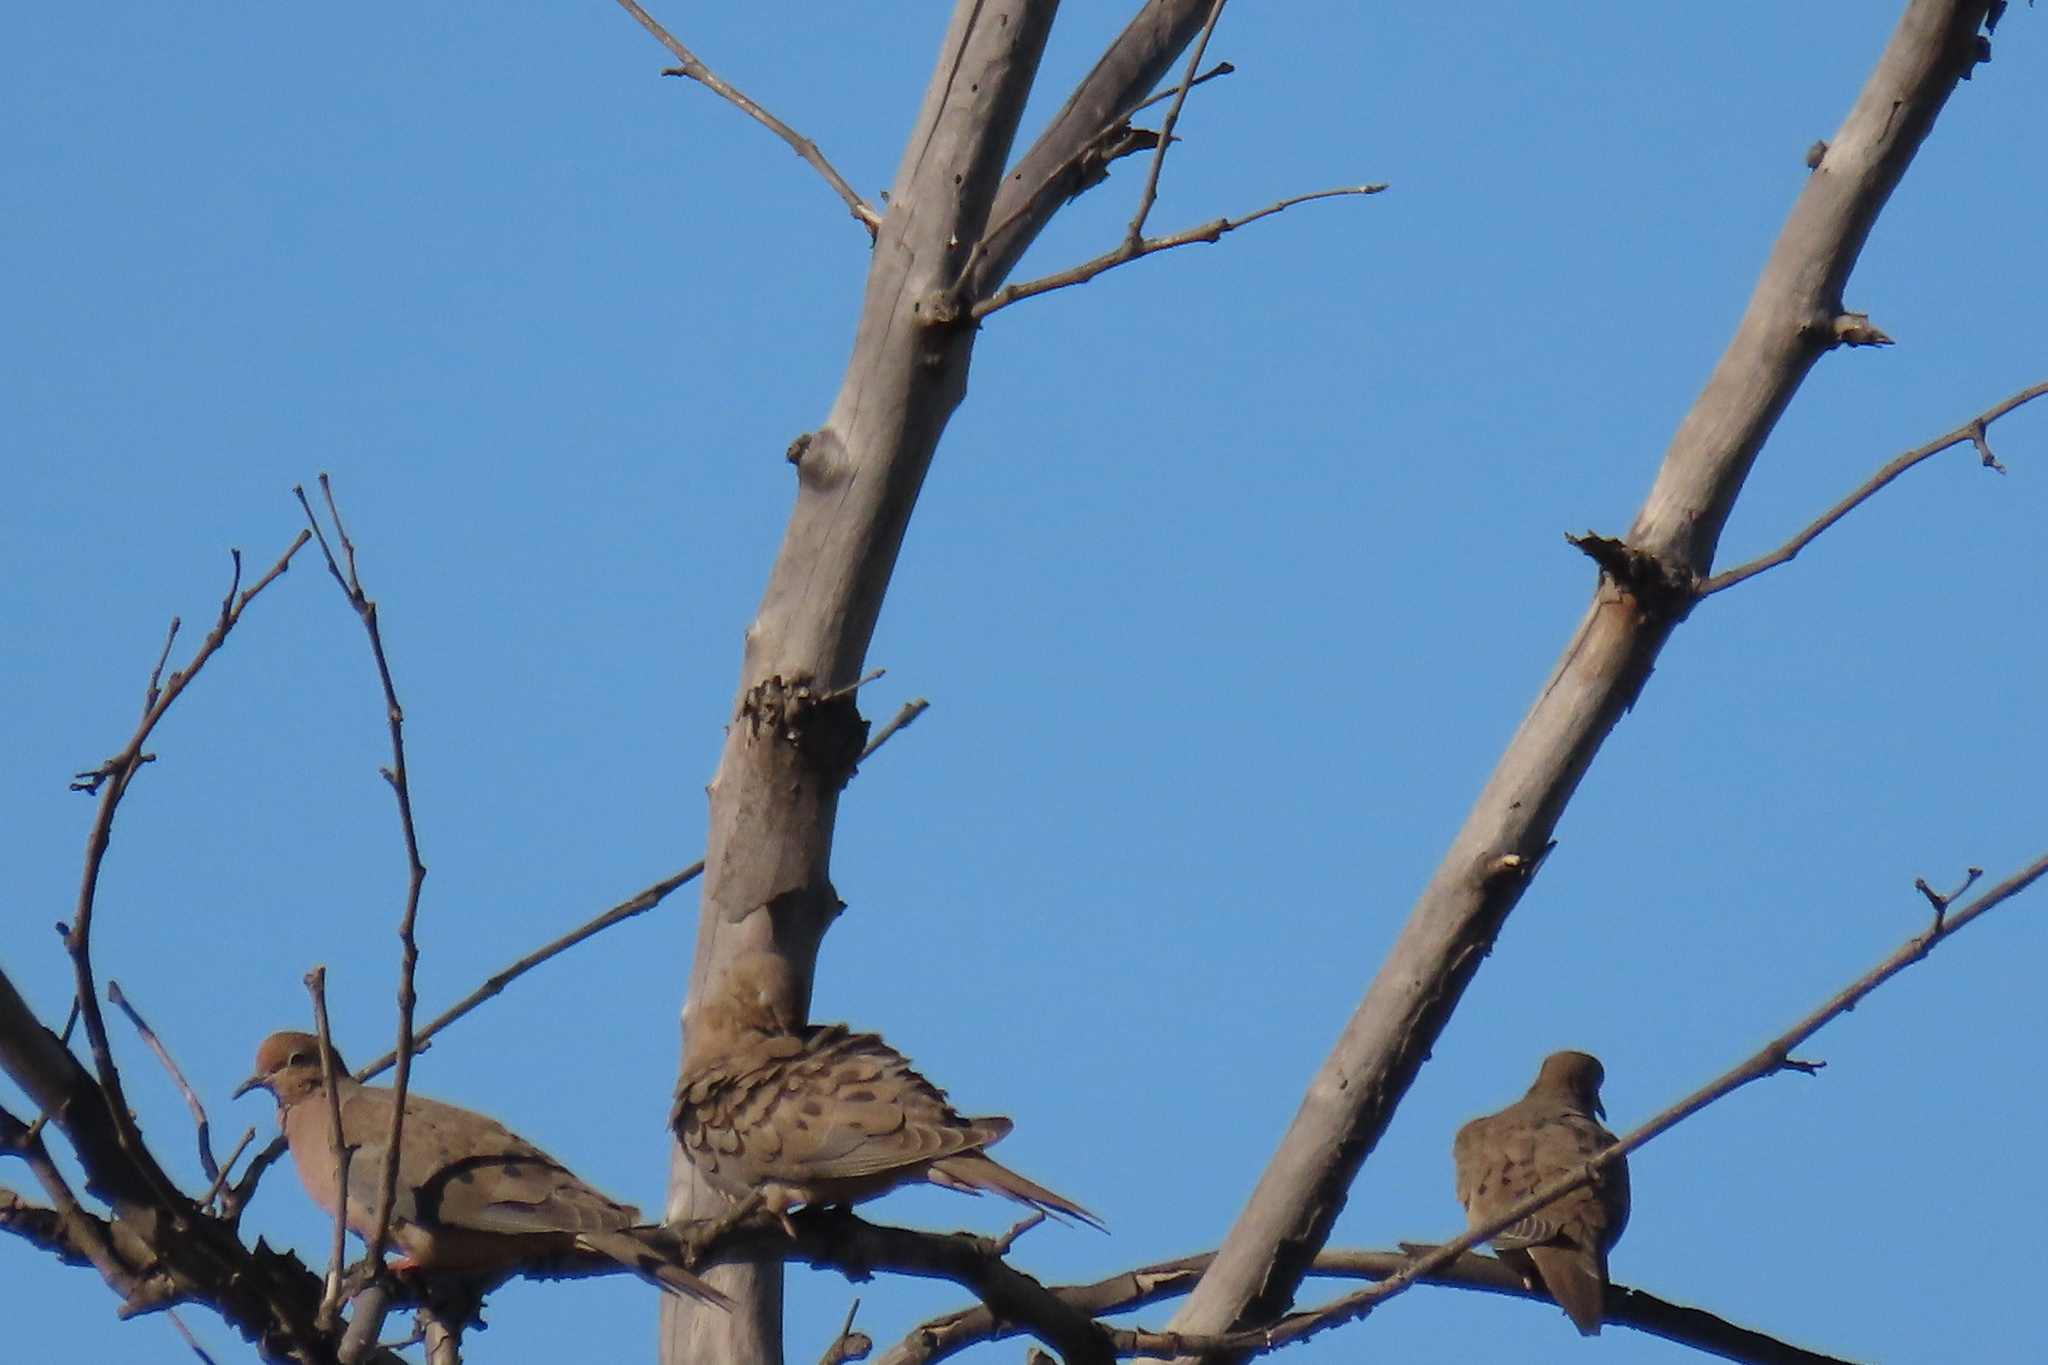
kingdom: Animalia
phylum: Chordata
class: Aves
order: Columbiformes
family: Columbidae
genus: Zenaida
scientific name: Zenaida macroura
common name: Mourning dove
